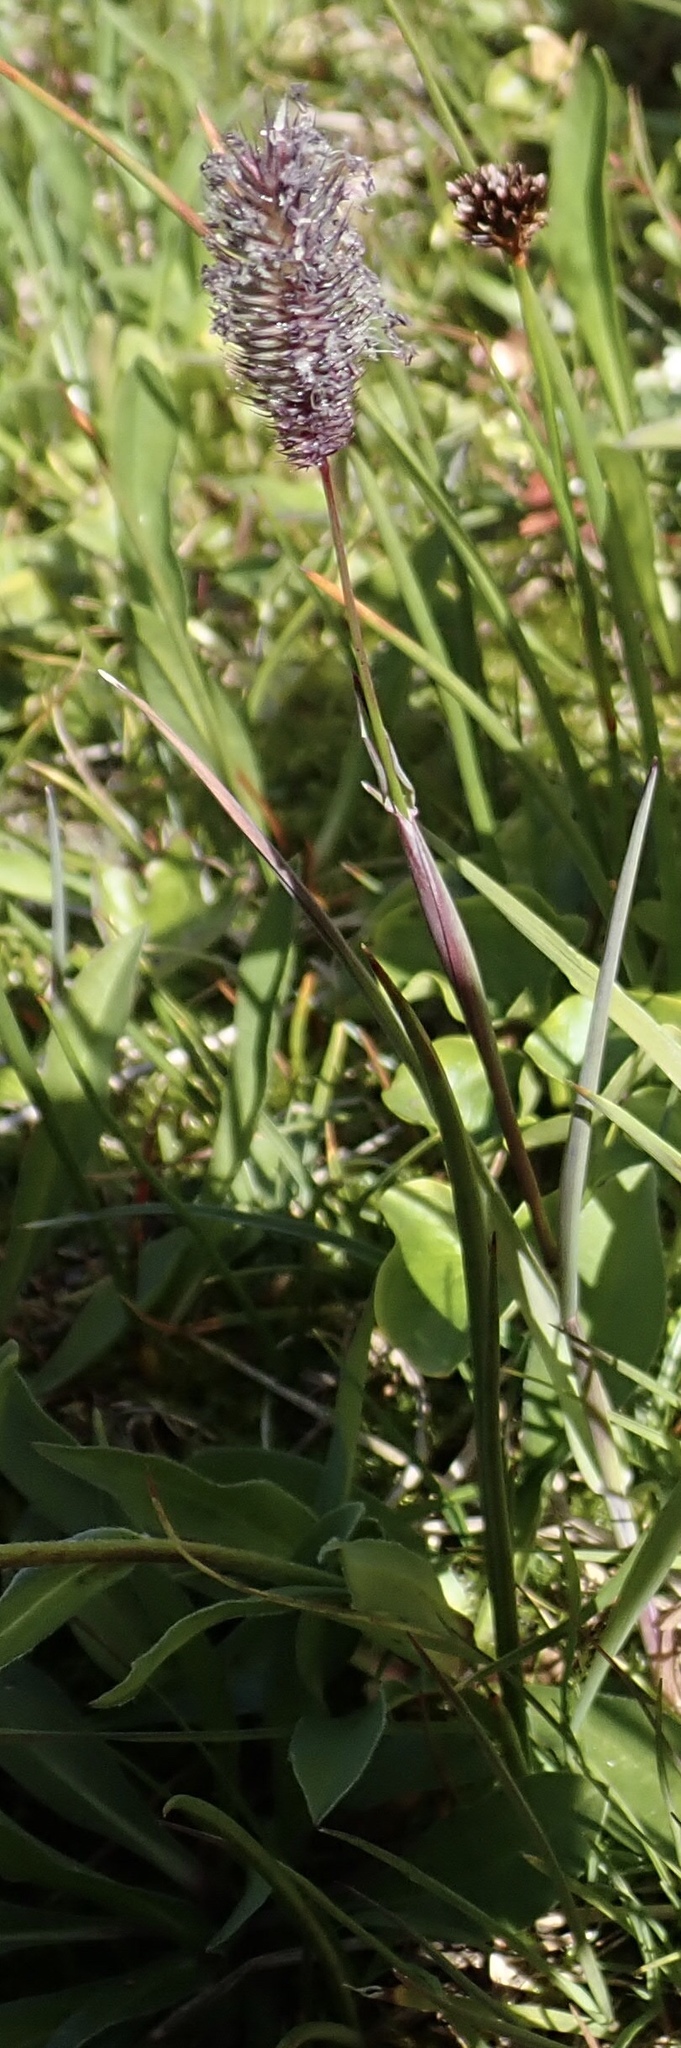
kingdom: Plantae
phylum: Tracheophyta
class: Liliopsida
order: Poales
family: Poaceae
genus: Phleum
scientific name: Phleum alpinum
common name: Alpine cat's-tail
